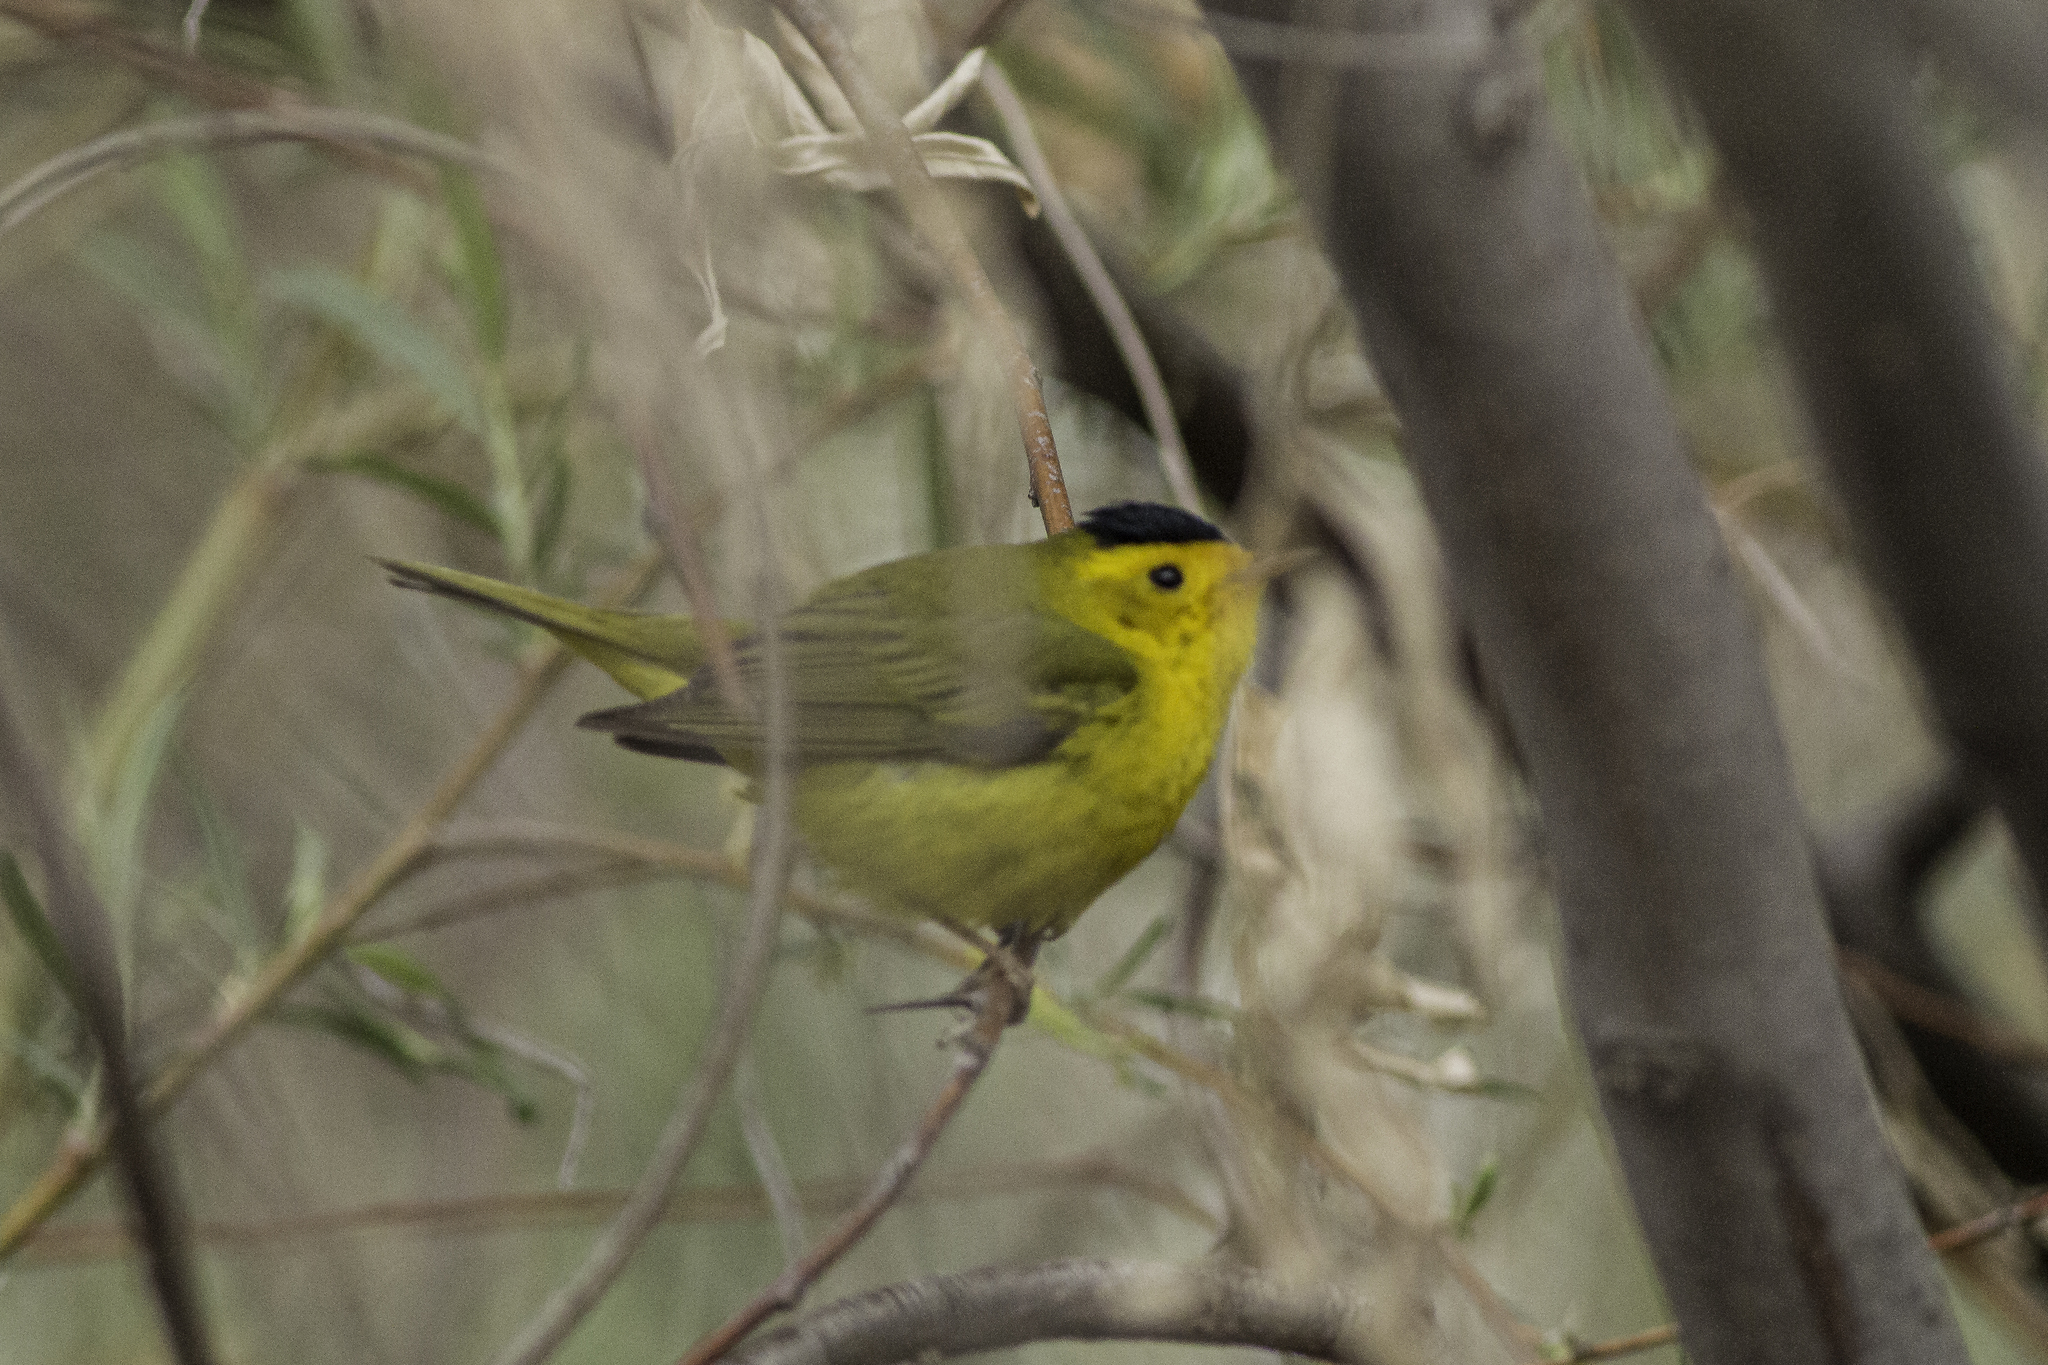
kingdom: Animalia
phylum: Chordata
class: Aves
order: Passeriformes
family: Parulidae
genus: Cardellina
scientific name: Cardellina pusilla
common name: Wilson's warbler
